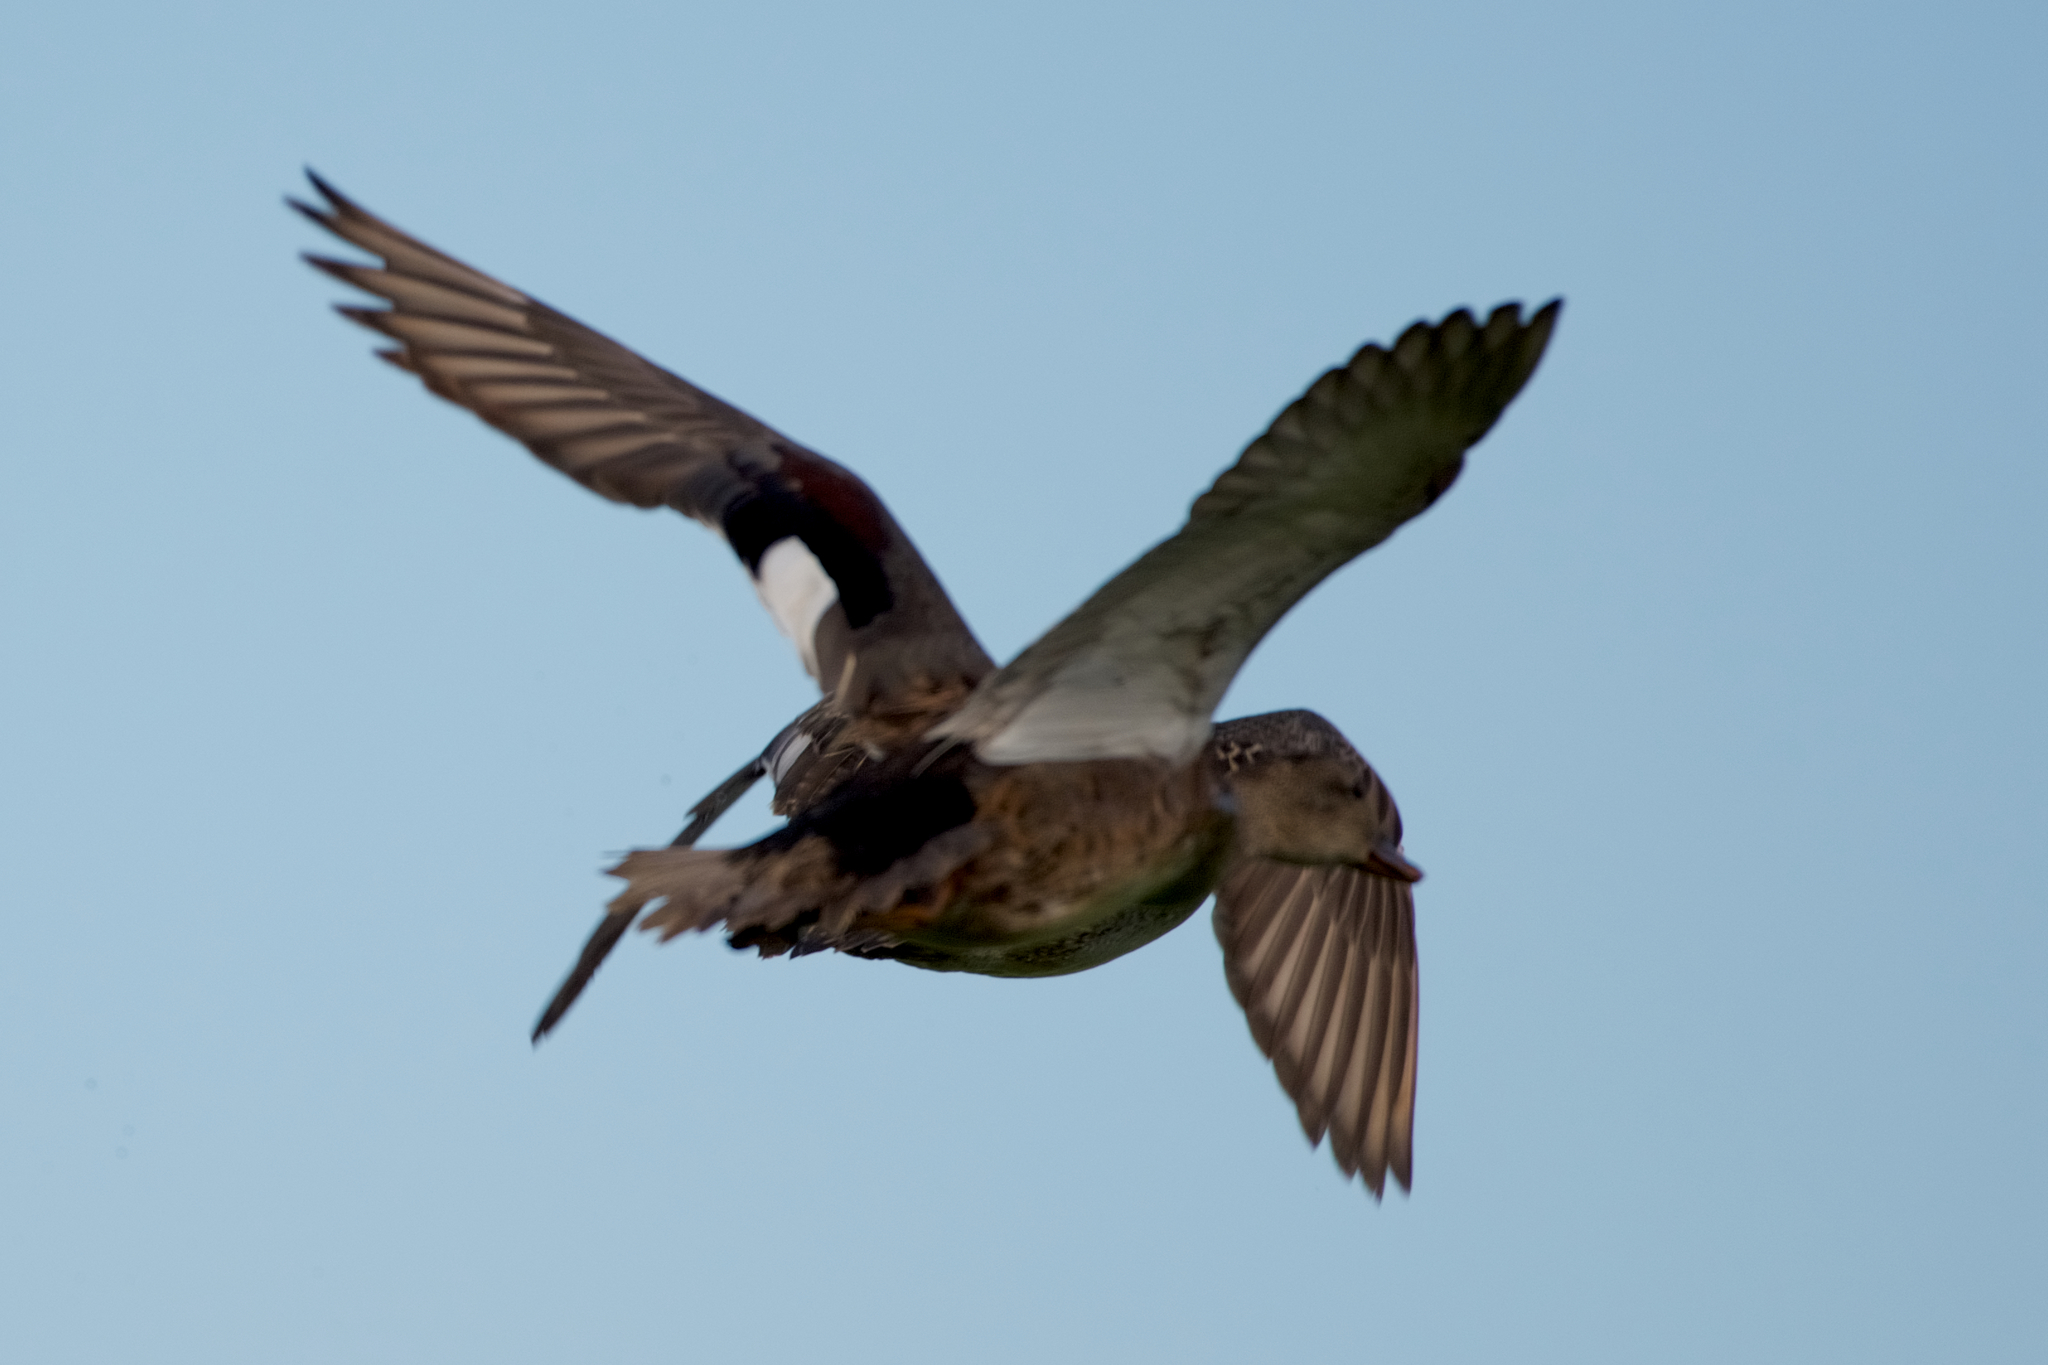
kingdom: Animalia
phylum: Chordata
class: Aves
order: Anseriformes
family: Anatidae
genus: Mareca
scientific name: Mareca strepera
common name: Gadwall
